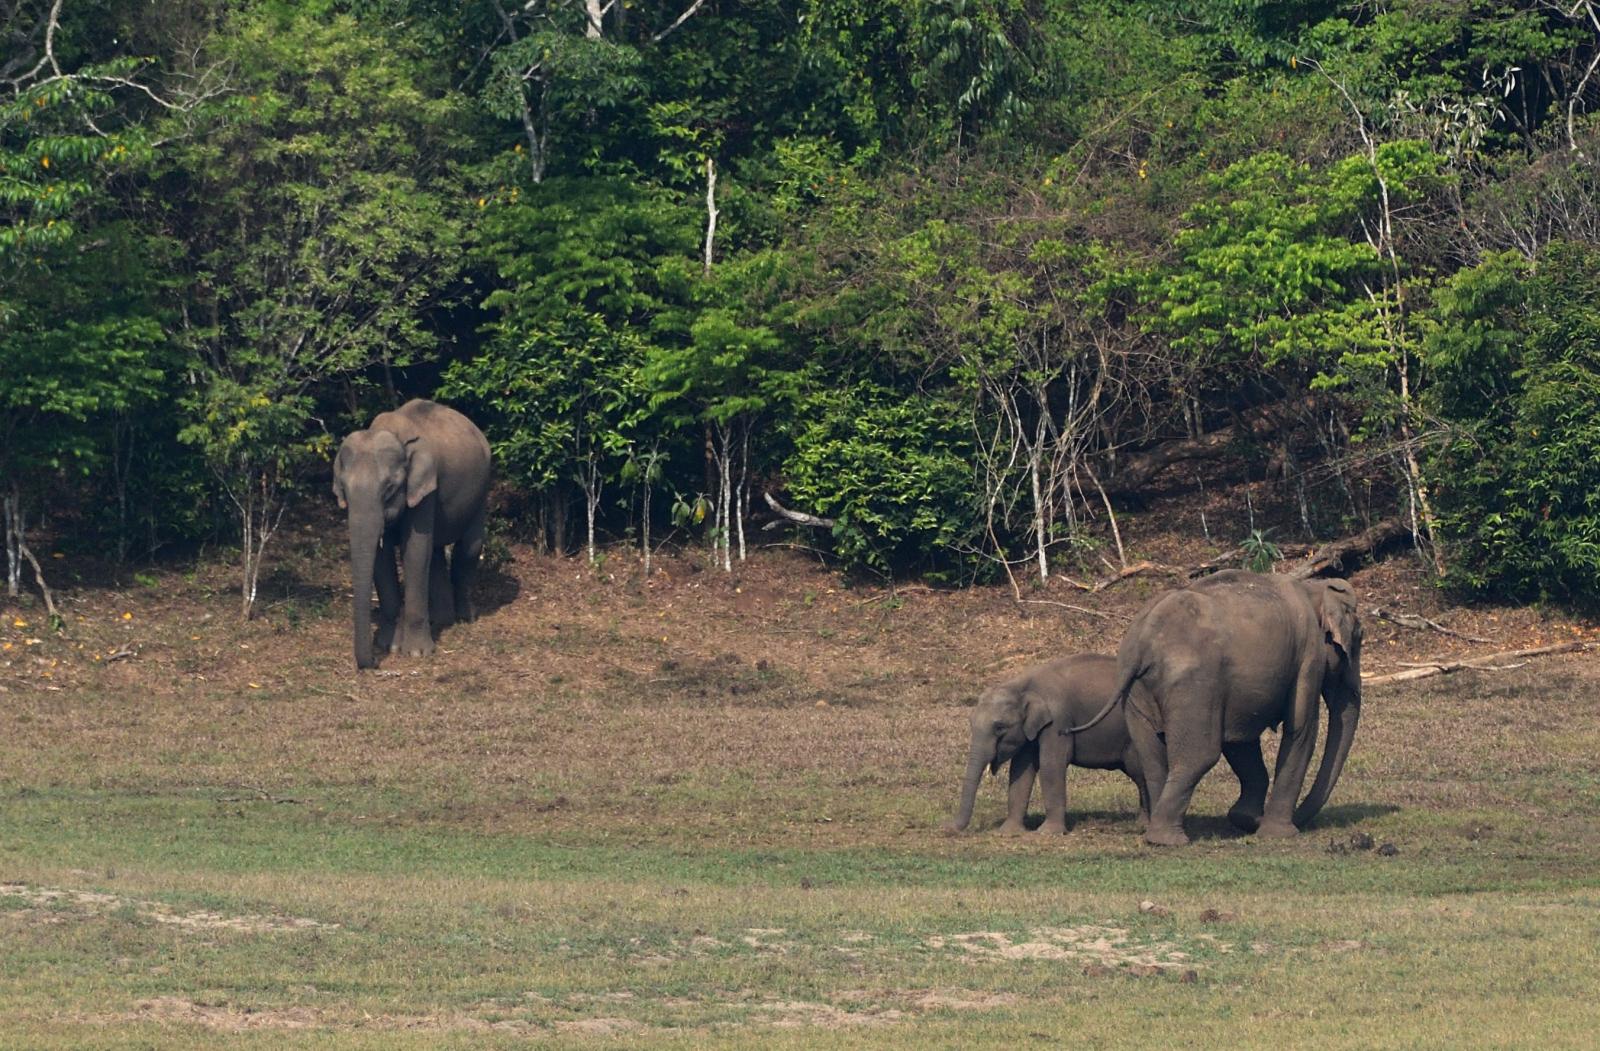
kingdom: Animalia
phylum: Chordata
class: Mammalia
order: Proboscidea
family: Elephantidae
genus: Elephas
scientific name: Elephas maximus
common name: Asian elephant
